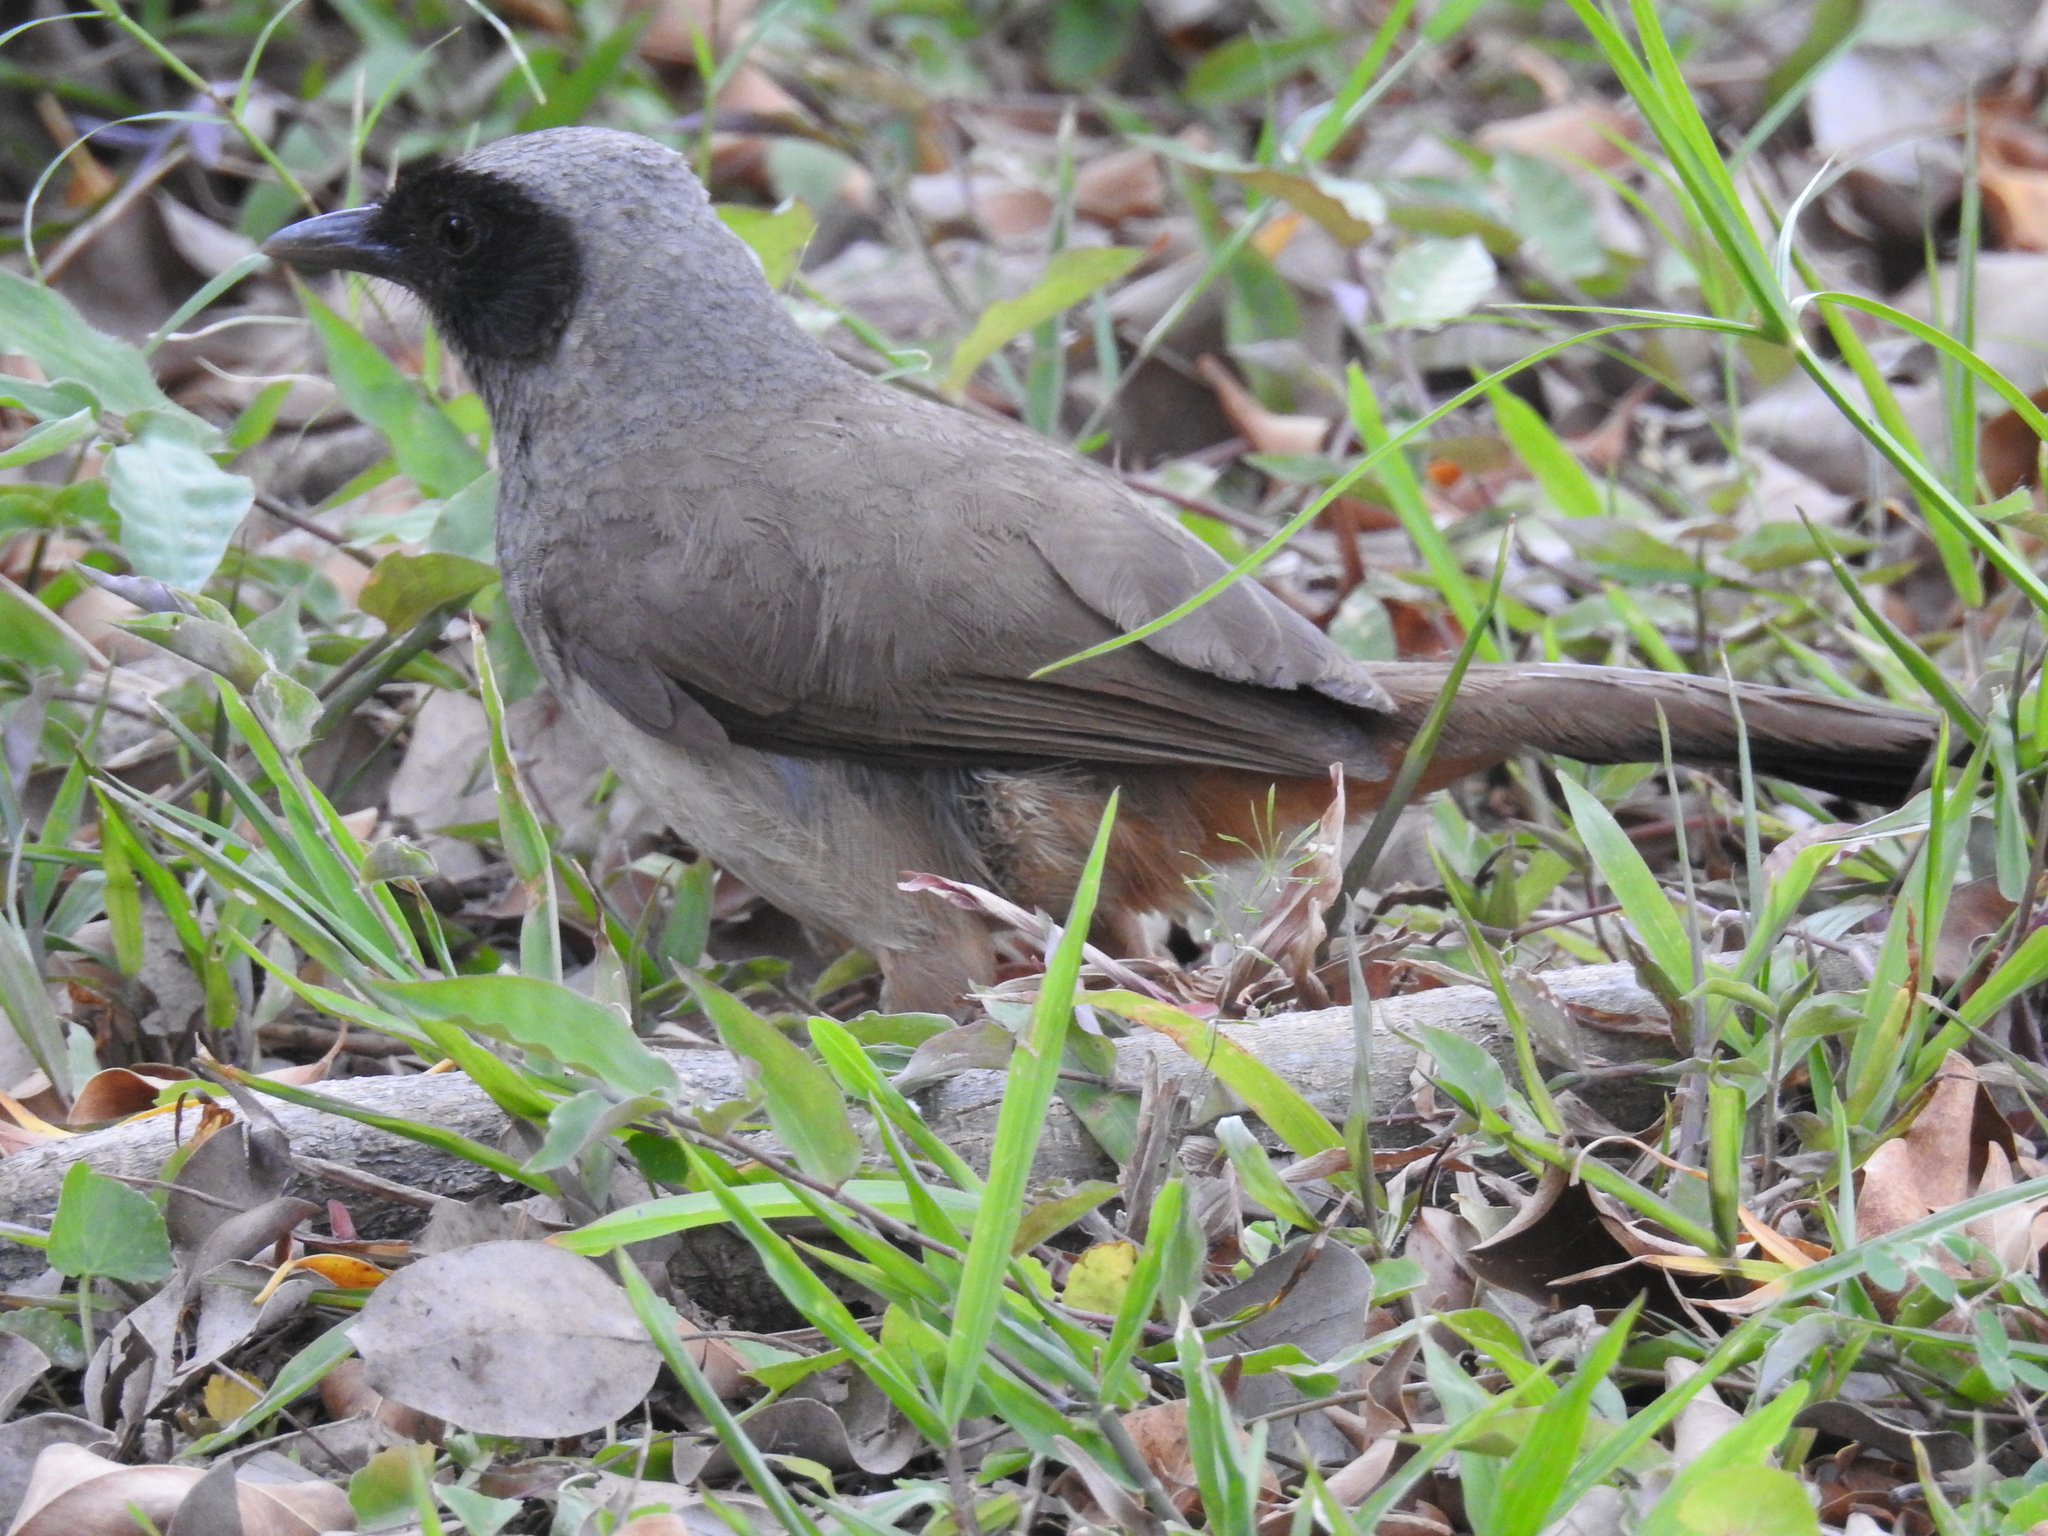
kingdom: Animalia
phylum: Chordata
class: Aves
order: Passeriformes
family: Leiothrichidae
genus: Garrulax
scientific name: Garrulax perspicillatus
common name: Masked laughingthrush
